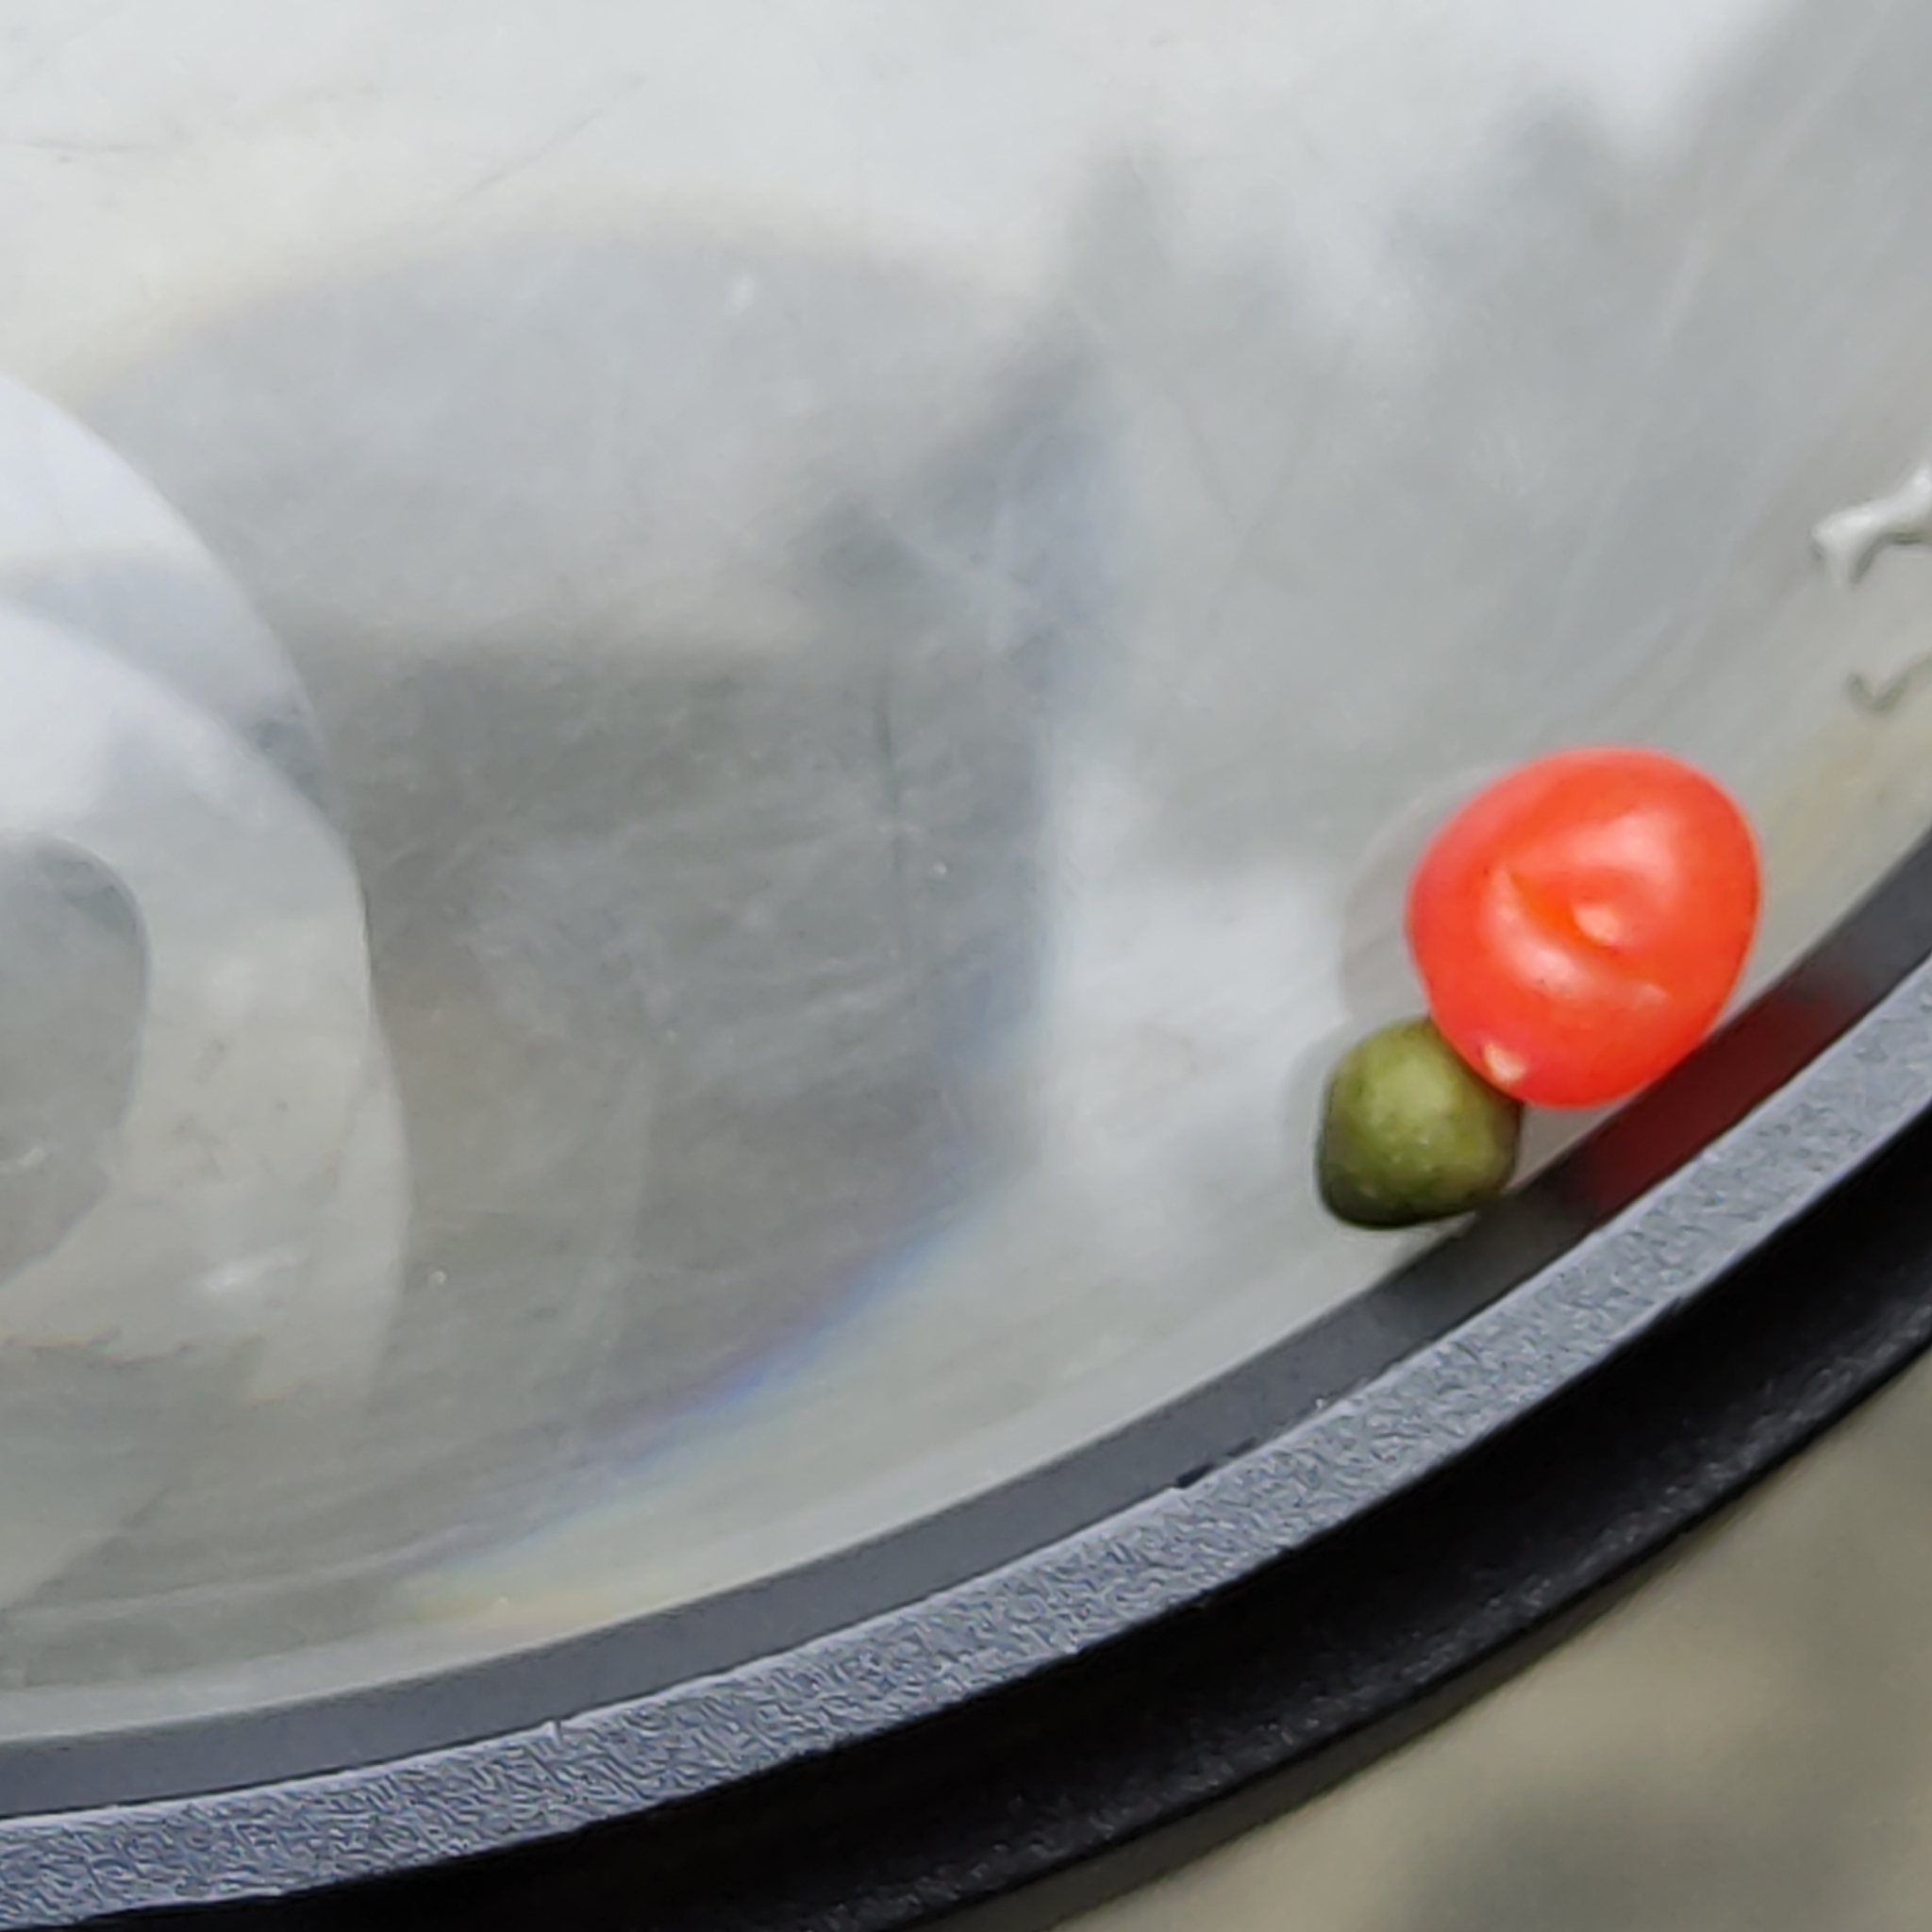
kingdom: Plantae
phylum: Tracheophyta
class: Pinopsida
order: Pinales
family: Podocarpaceae
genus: Podocarpus
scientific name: Podocarpus totara
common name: Totara
